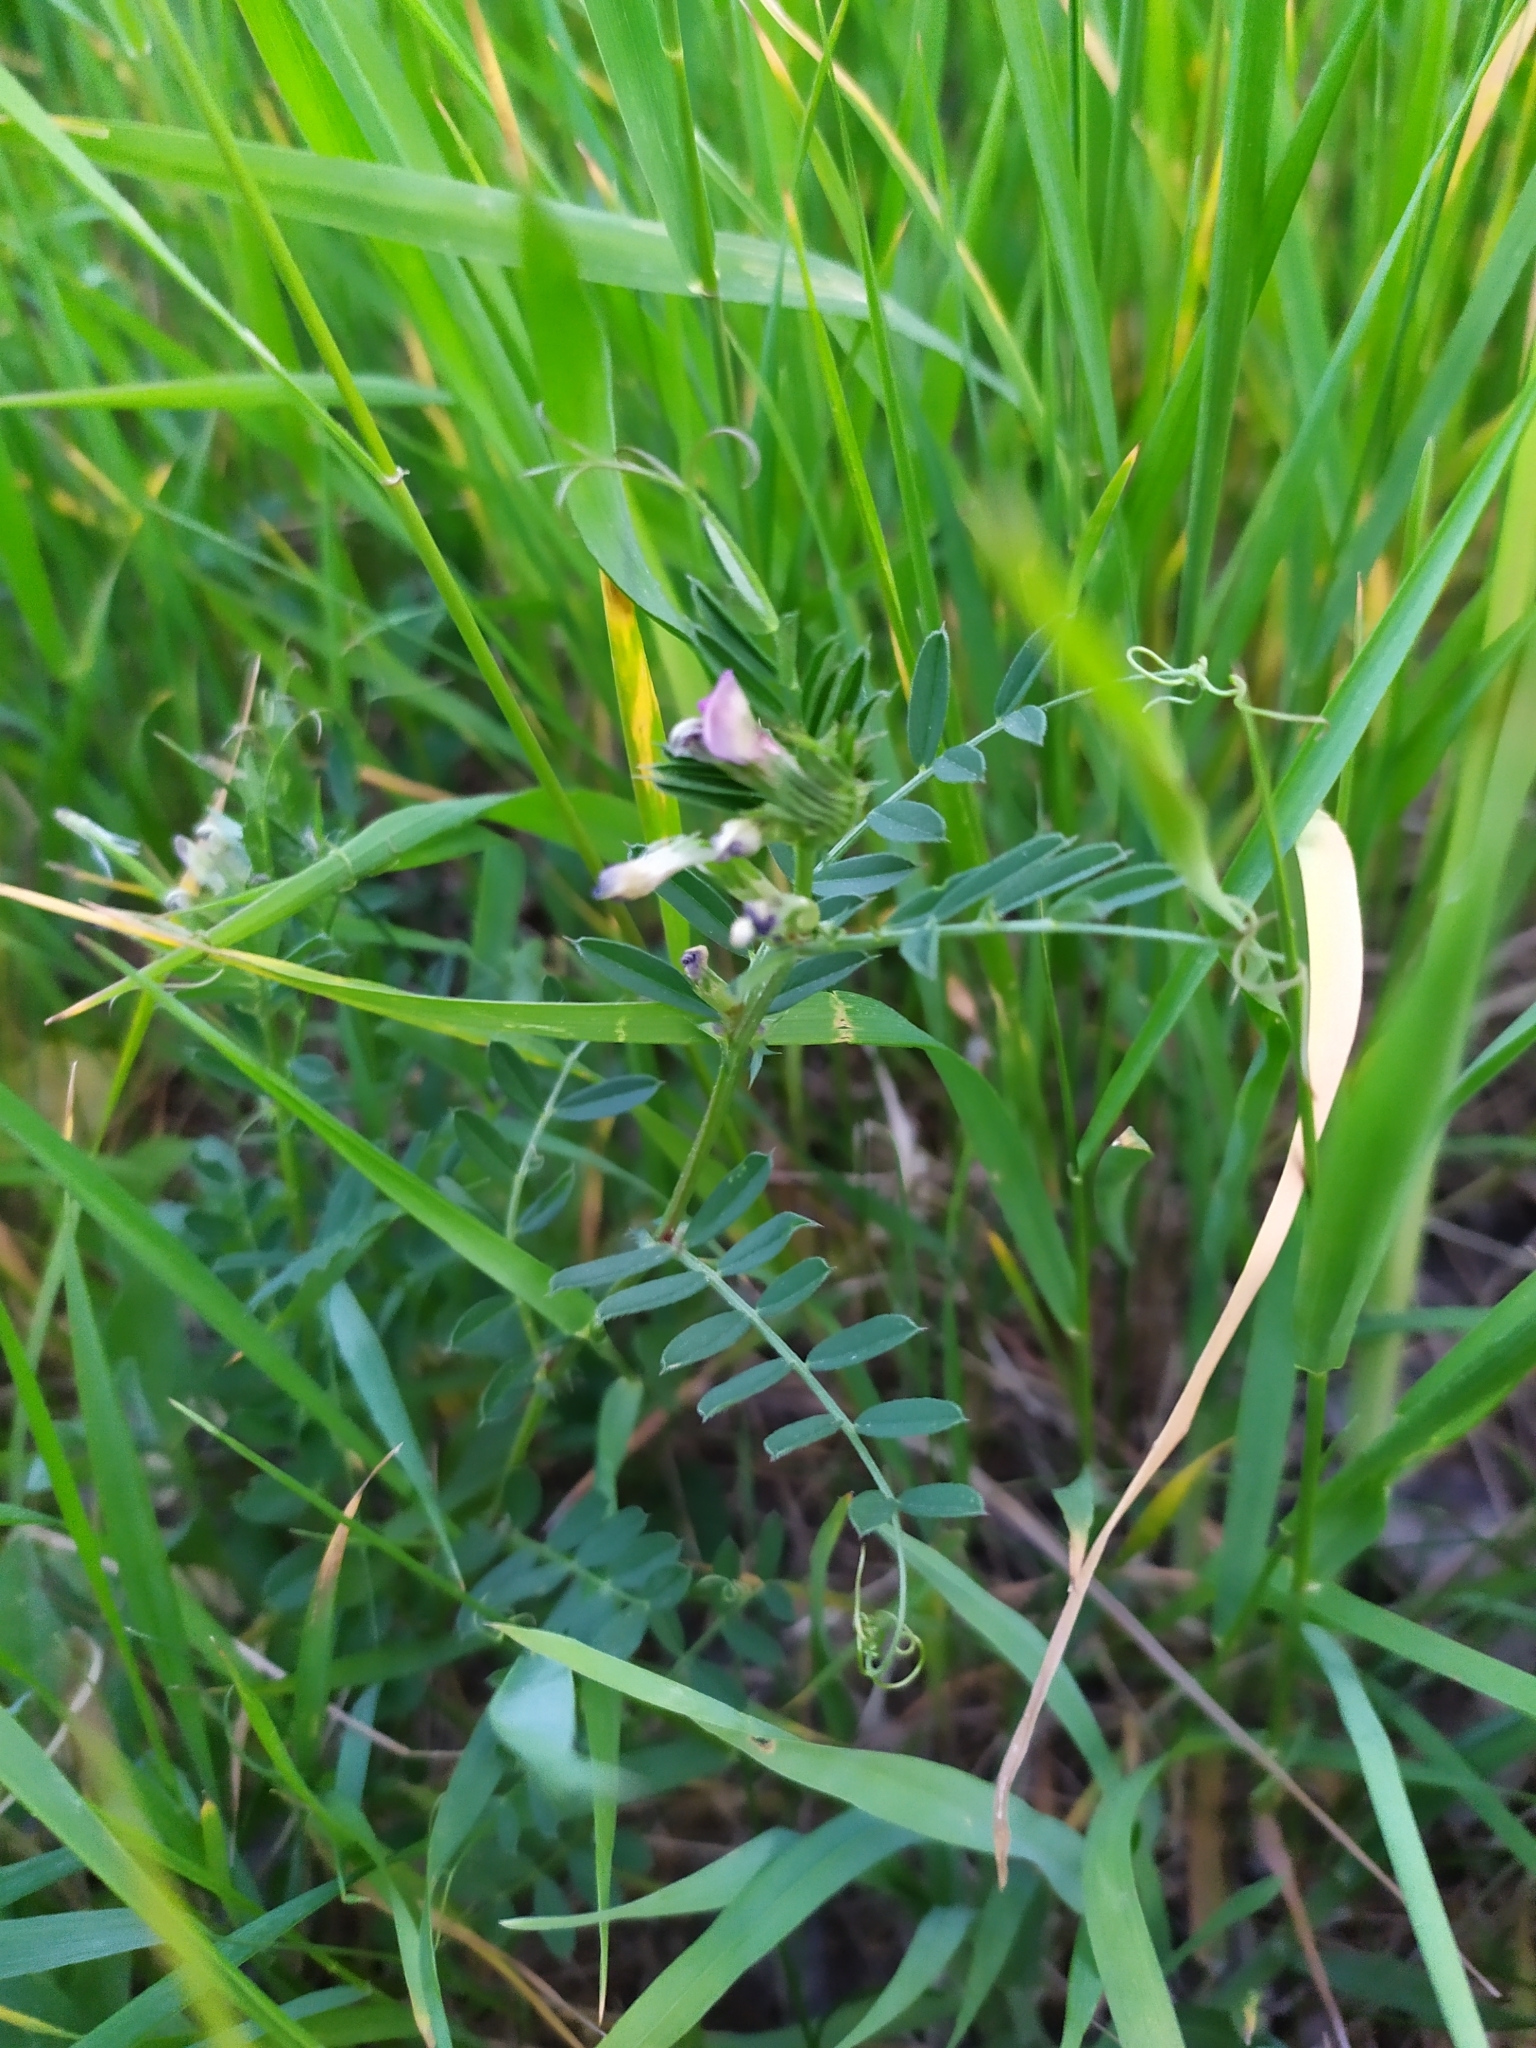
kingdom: Plantae
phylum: Tracheophyta
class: Magnoliopsida
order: Fabales
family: Fabaceae
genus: Vicia
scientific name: Vicia sativa
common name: Garden vetch
